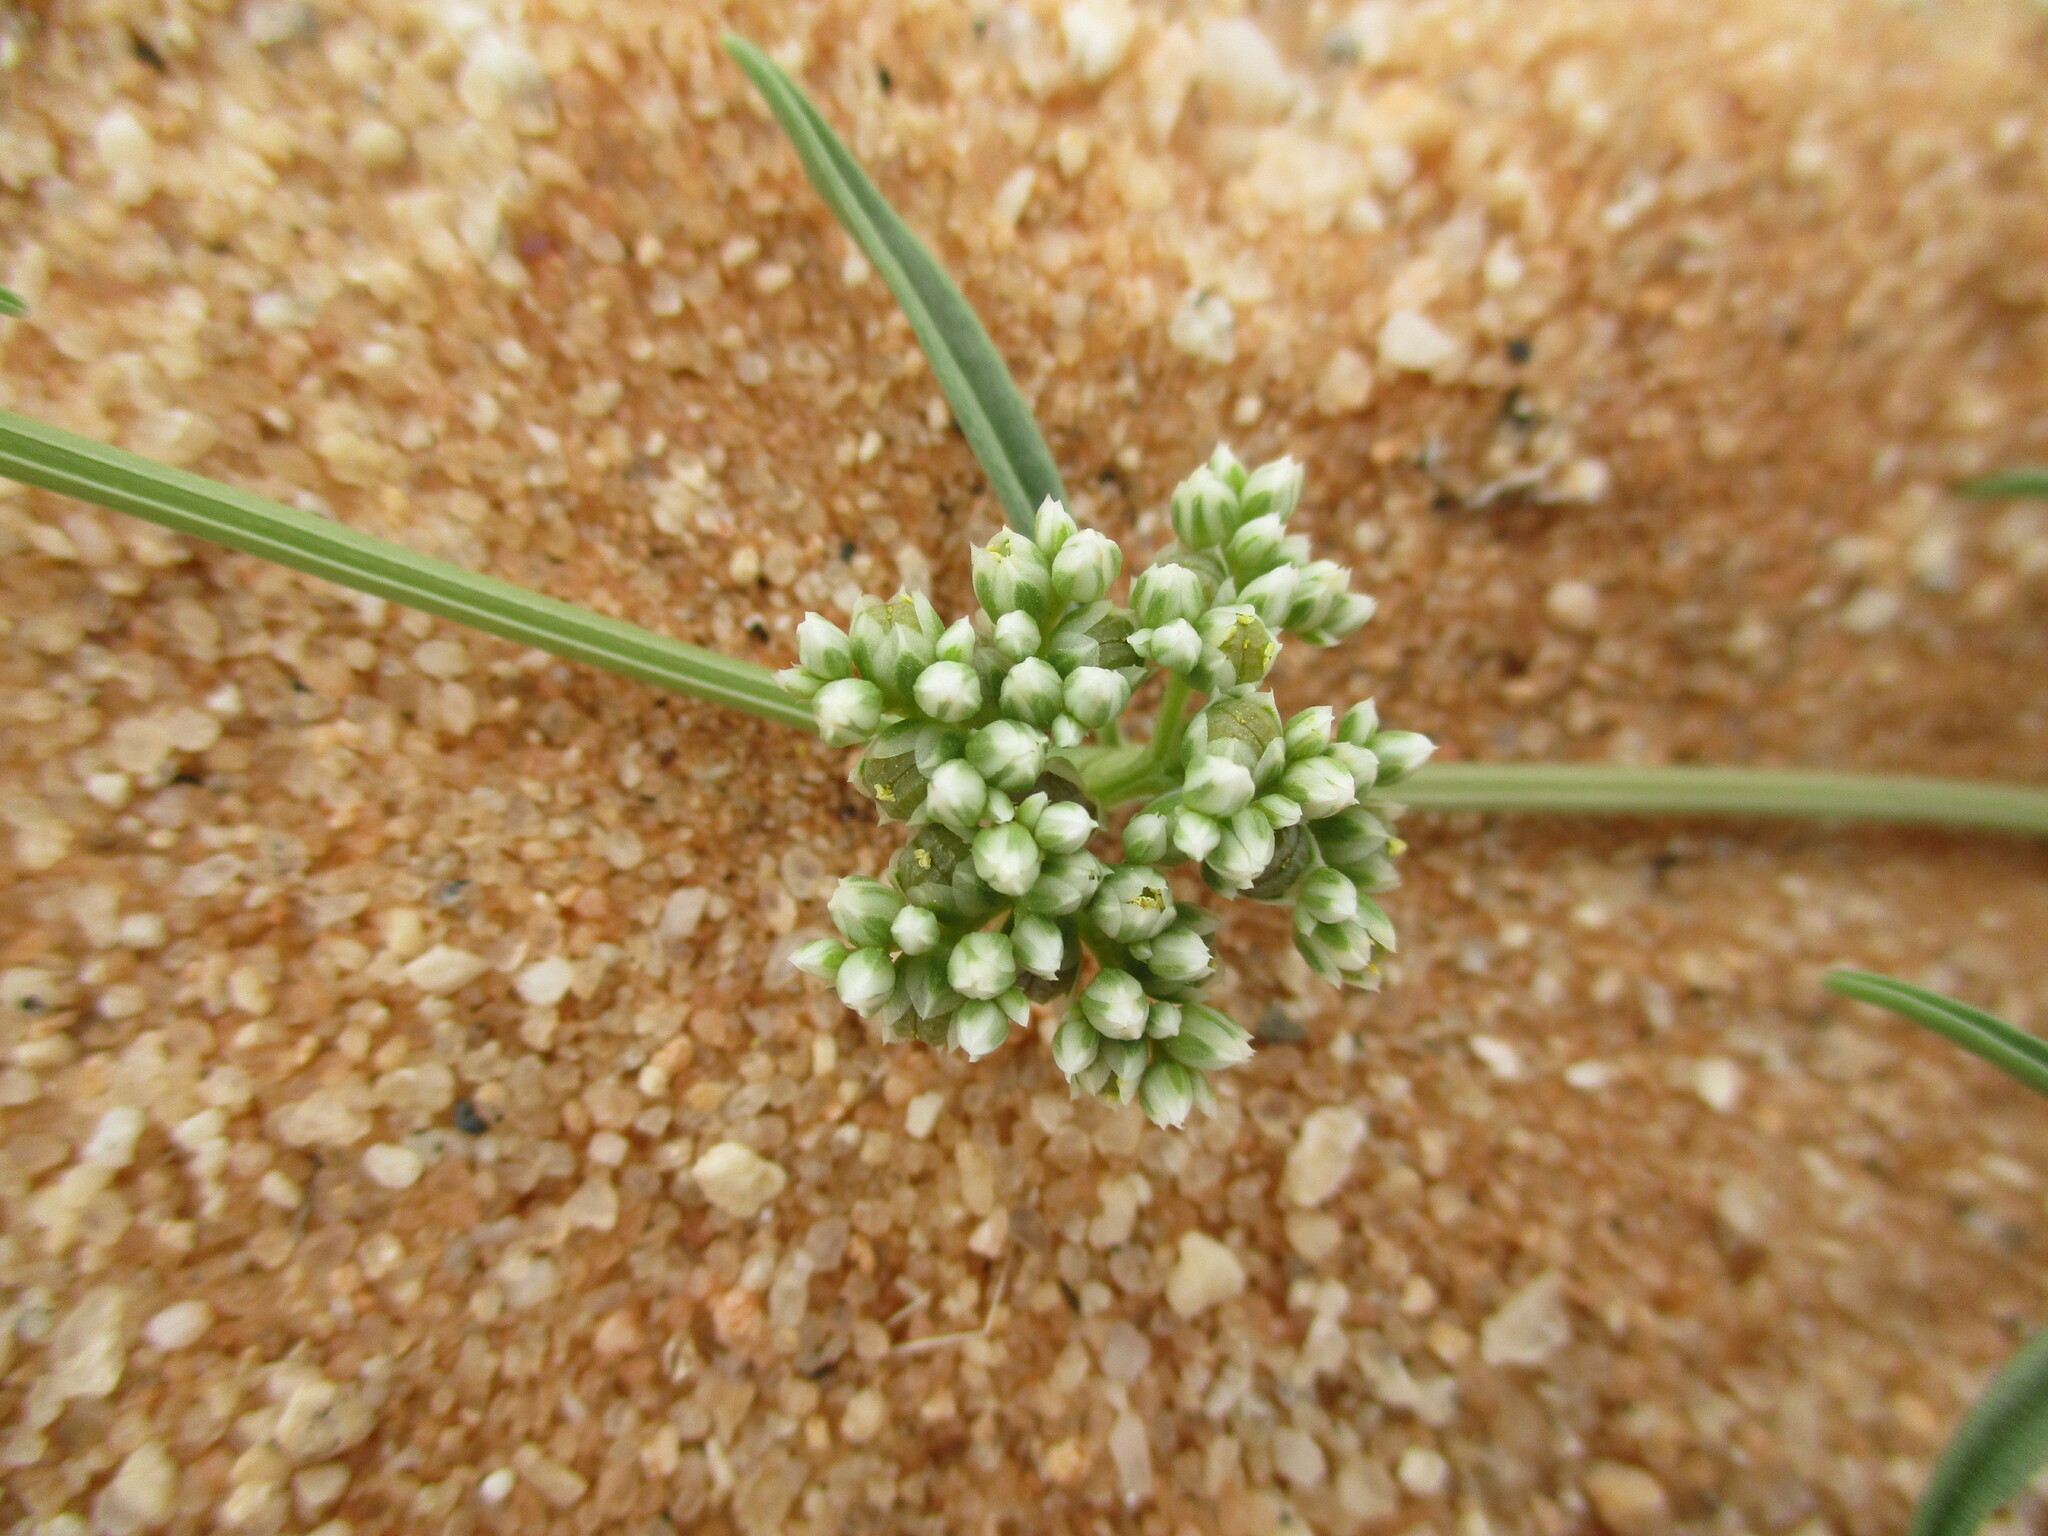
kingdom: Plantae
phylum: Tracheophyta
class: Magnoliopsida
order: Caryophyllales
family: Limeaceae
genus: Limeum
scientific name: Limeum argute-carinatum
